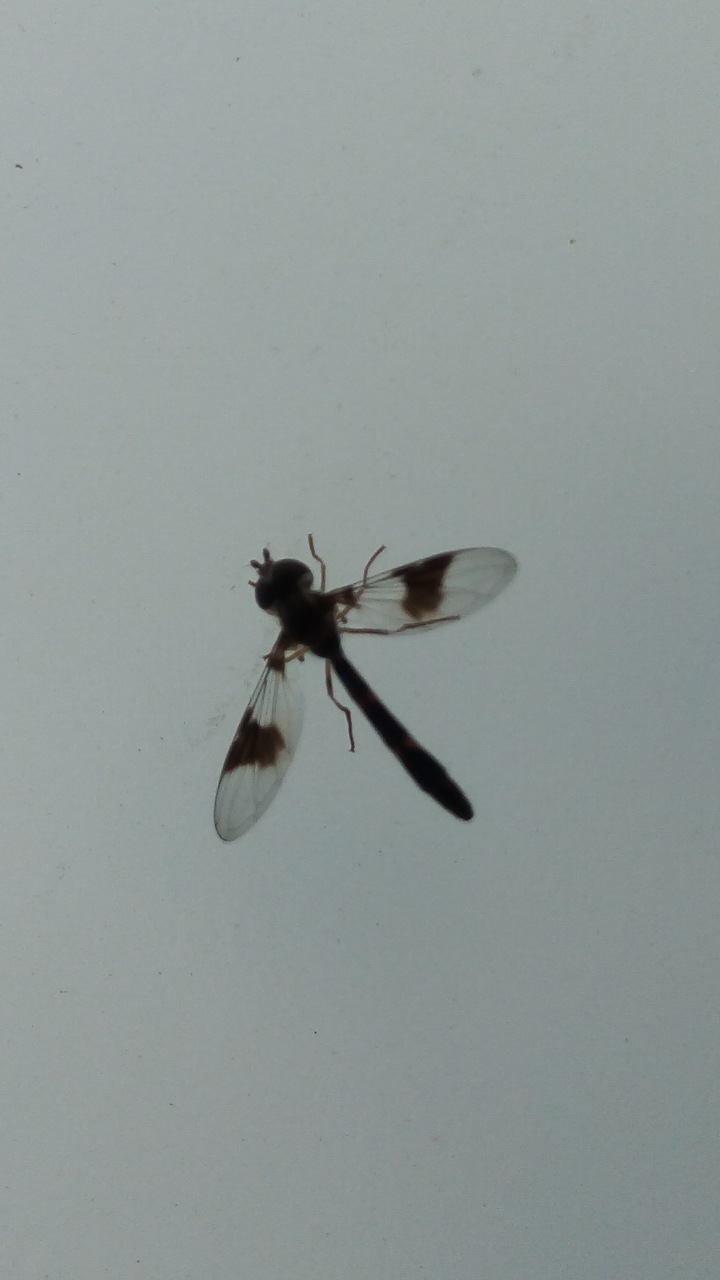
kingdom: Animalia
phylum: Arthropoda
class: Insecta
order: Diptera
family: Syrphidae
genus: Hypocritanus
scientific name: Hypocritanus fascipennis
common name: Eastern band-winged hover fly
